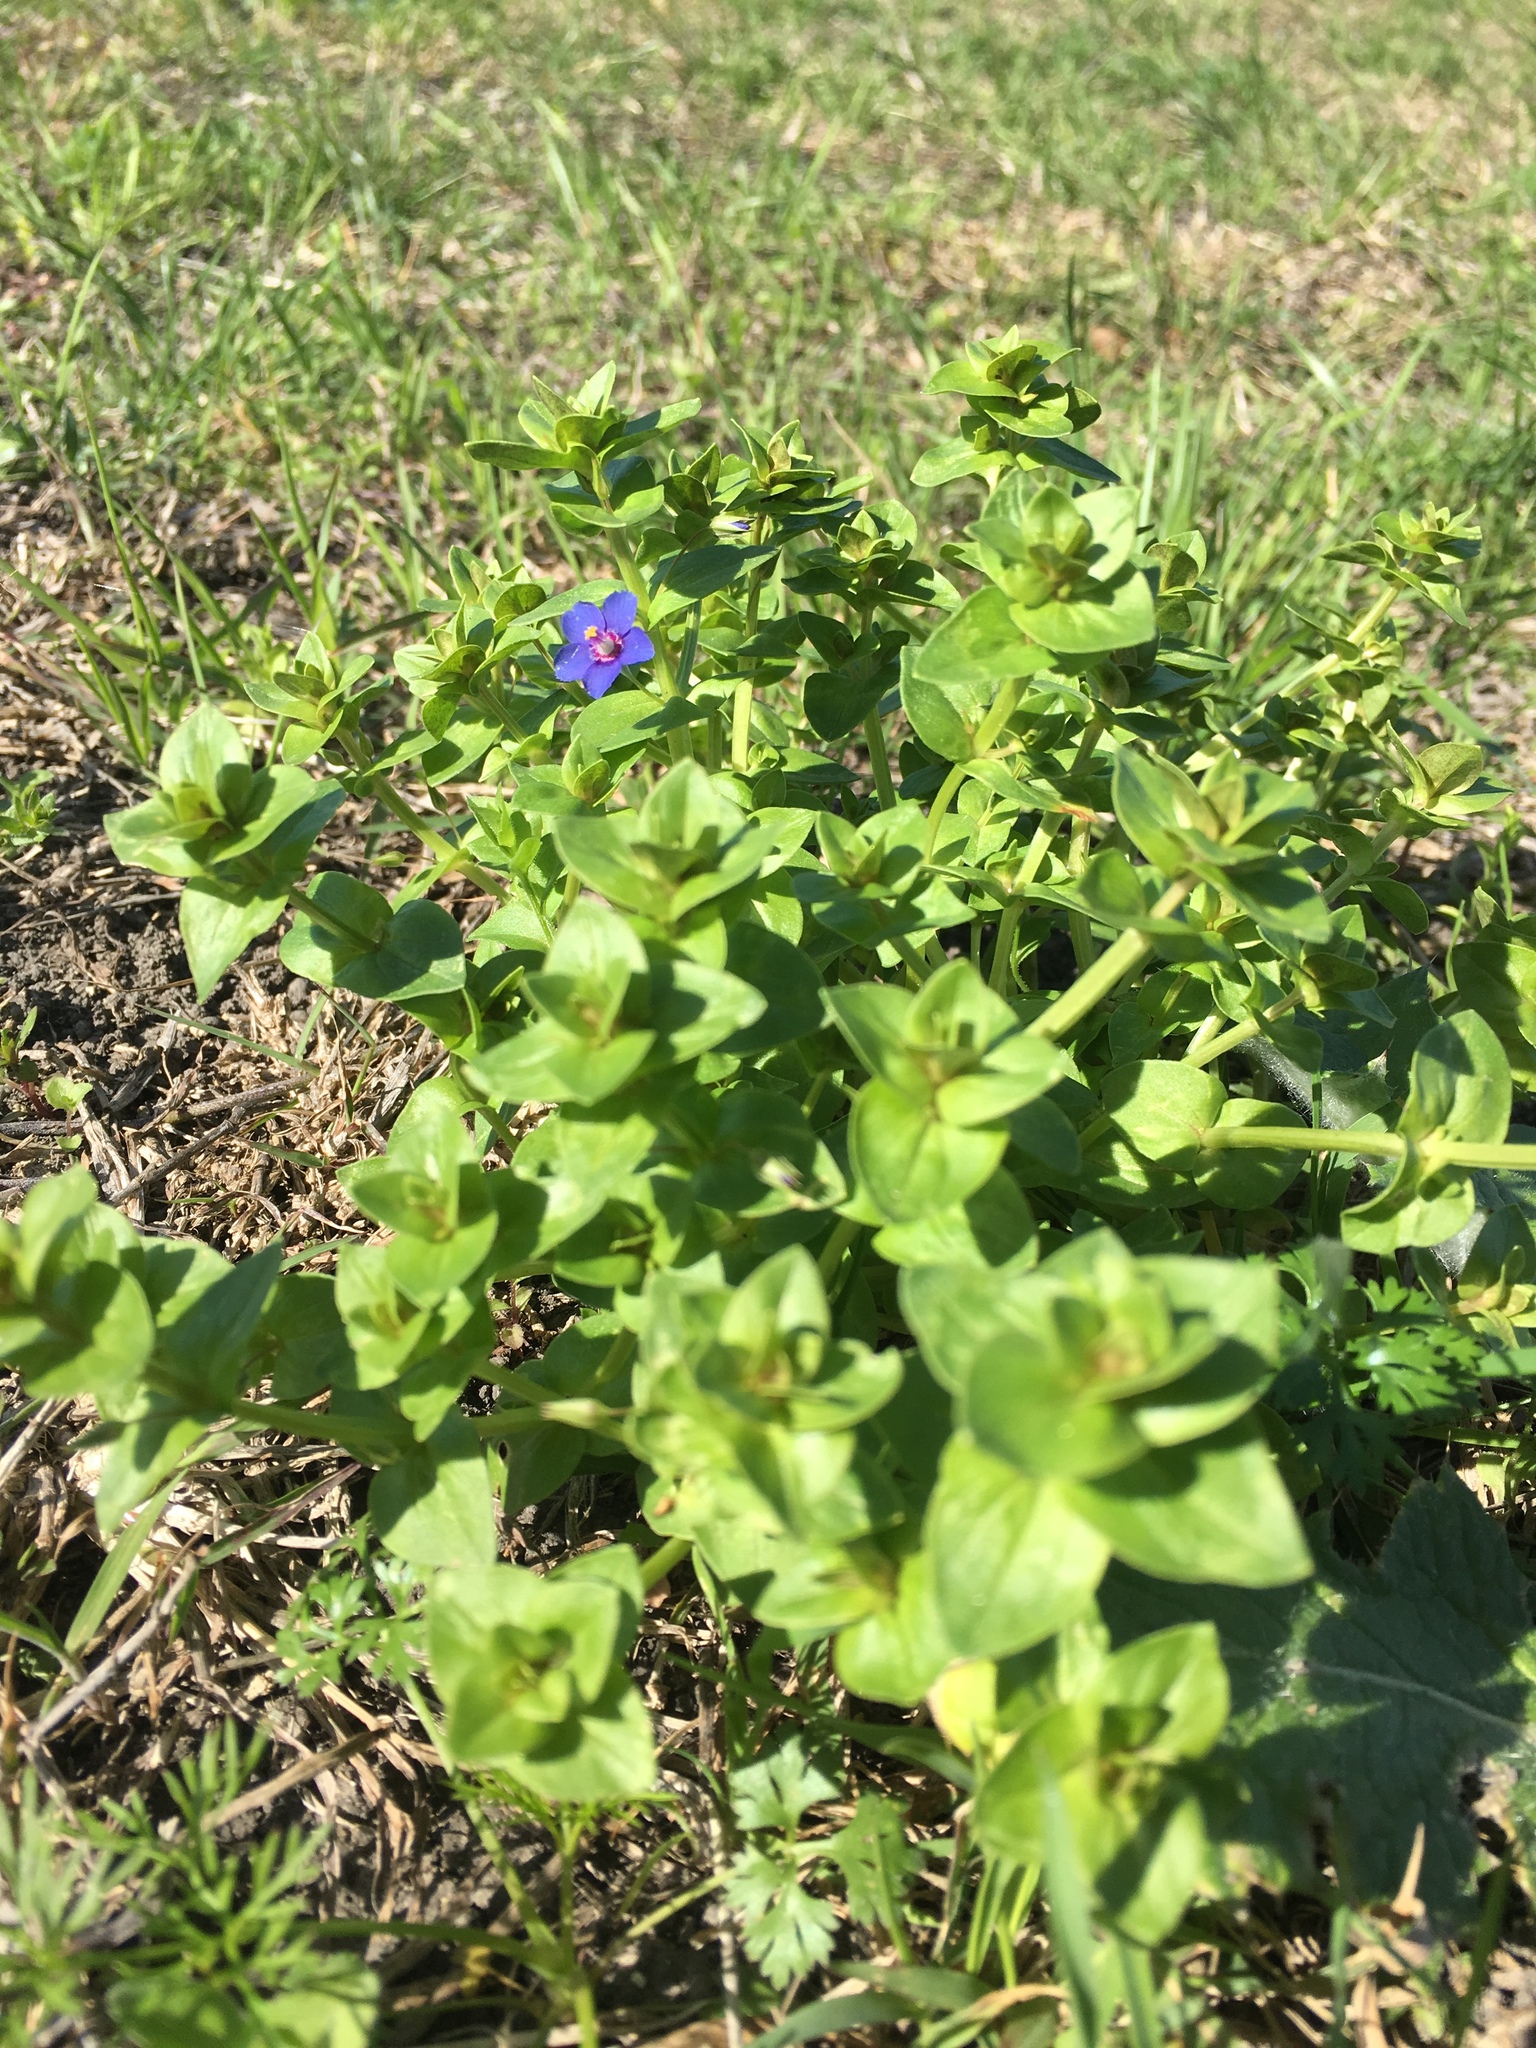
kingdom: Plantae
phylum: Tracheophyta
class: Magnoliopsida
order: Ericales
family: Primulaceae
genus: Lysimachia
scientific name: Lysimachia arvensis
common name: Scarlet pimpernel
